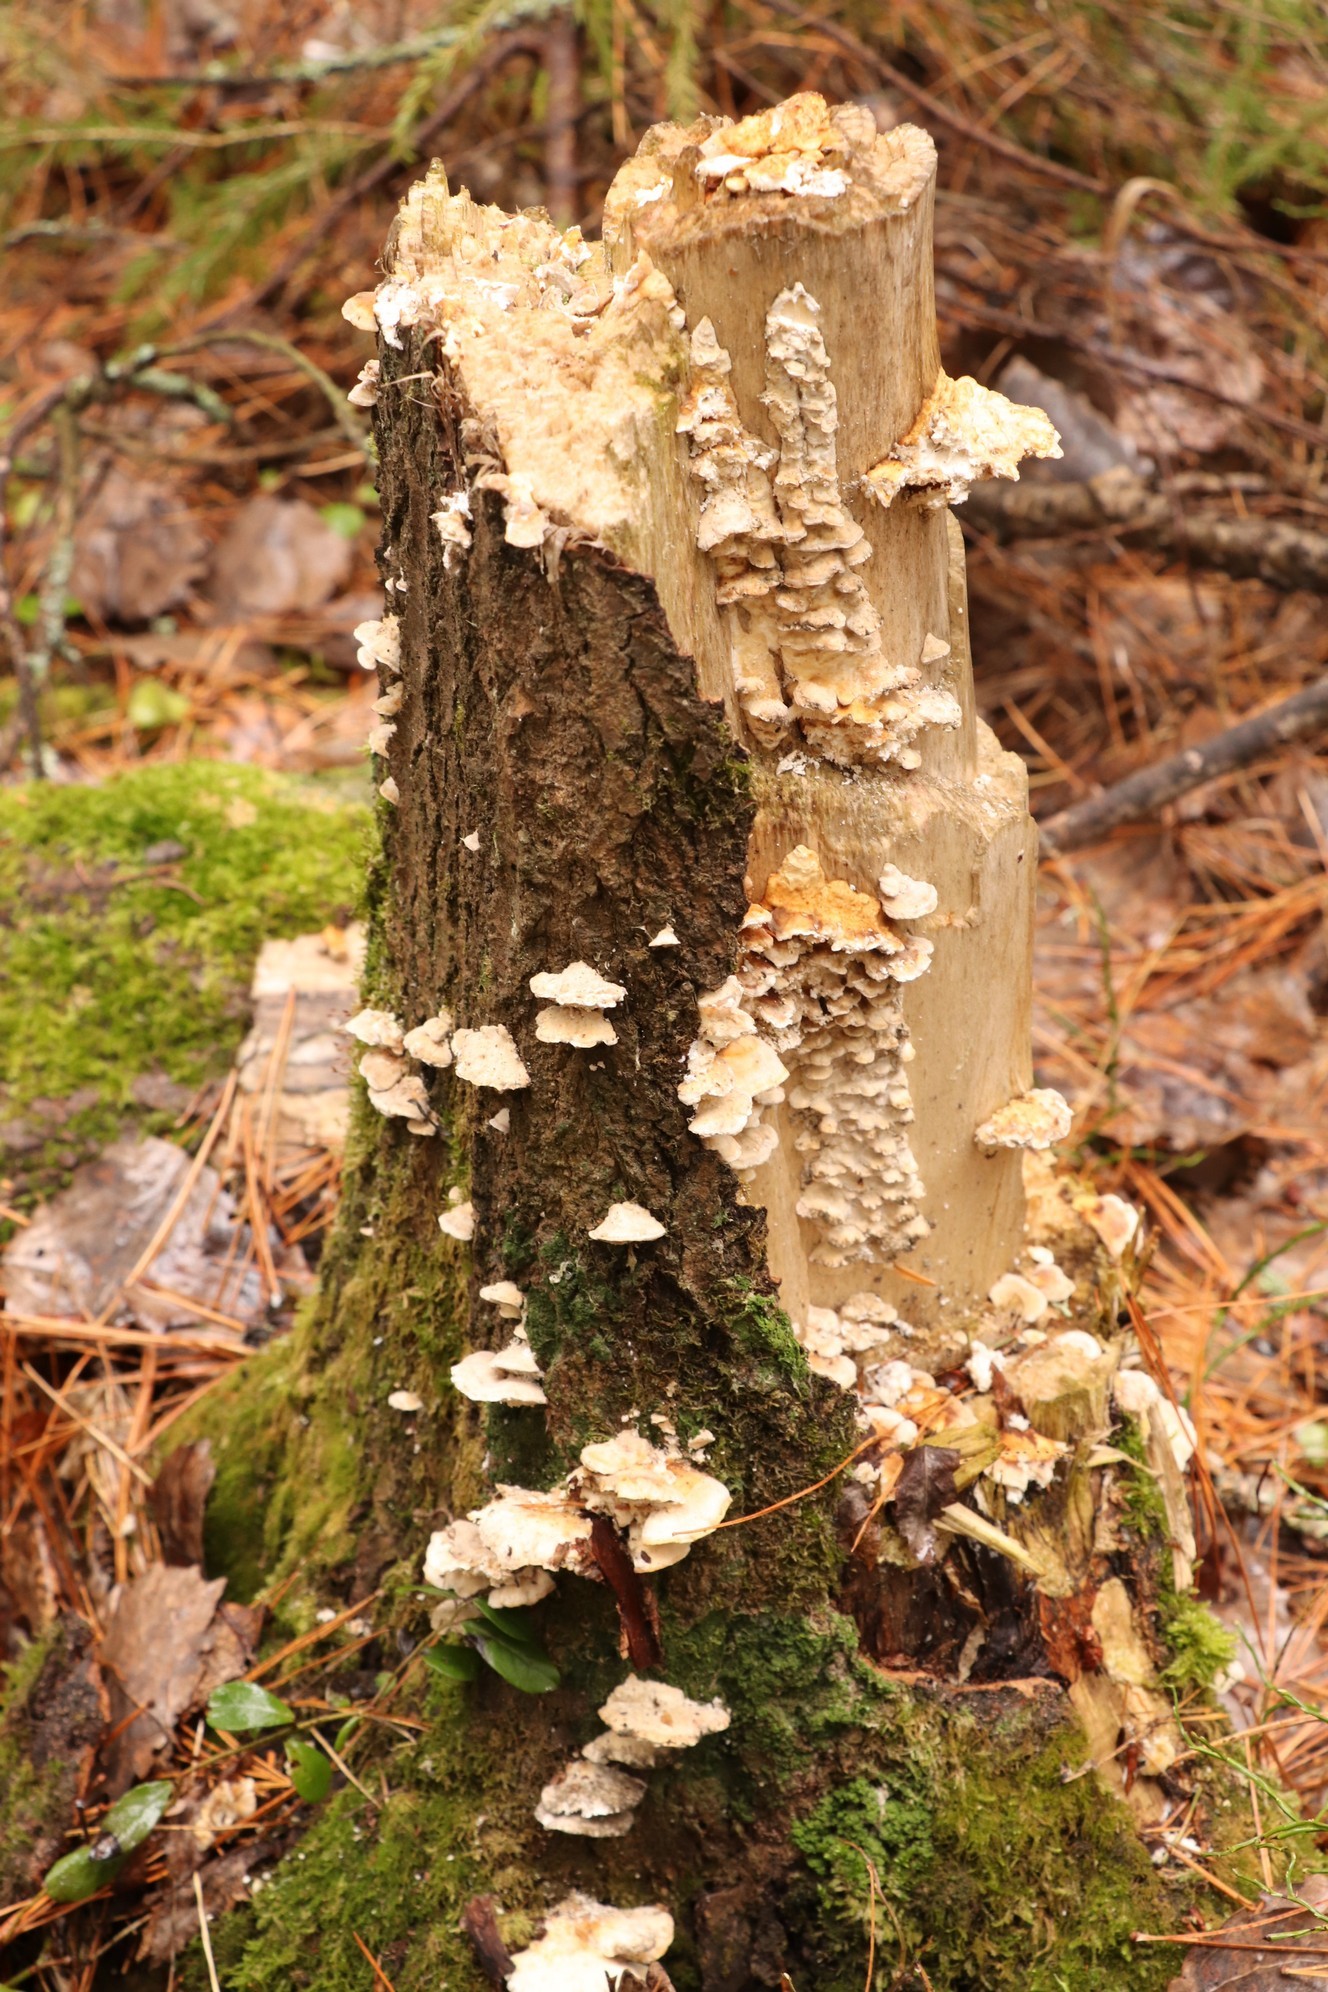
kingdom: Fungi
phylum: Basidiomycota
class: Agaricomycetes
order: Polyporales
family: Polyporaceae
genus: Trametes
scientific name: Trametes ochracea
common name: Ochre bracket
